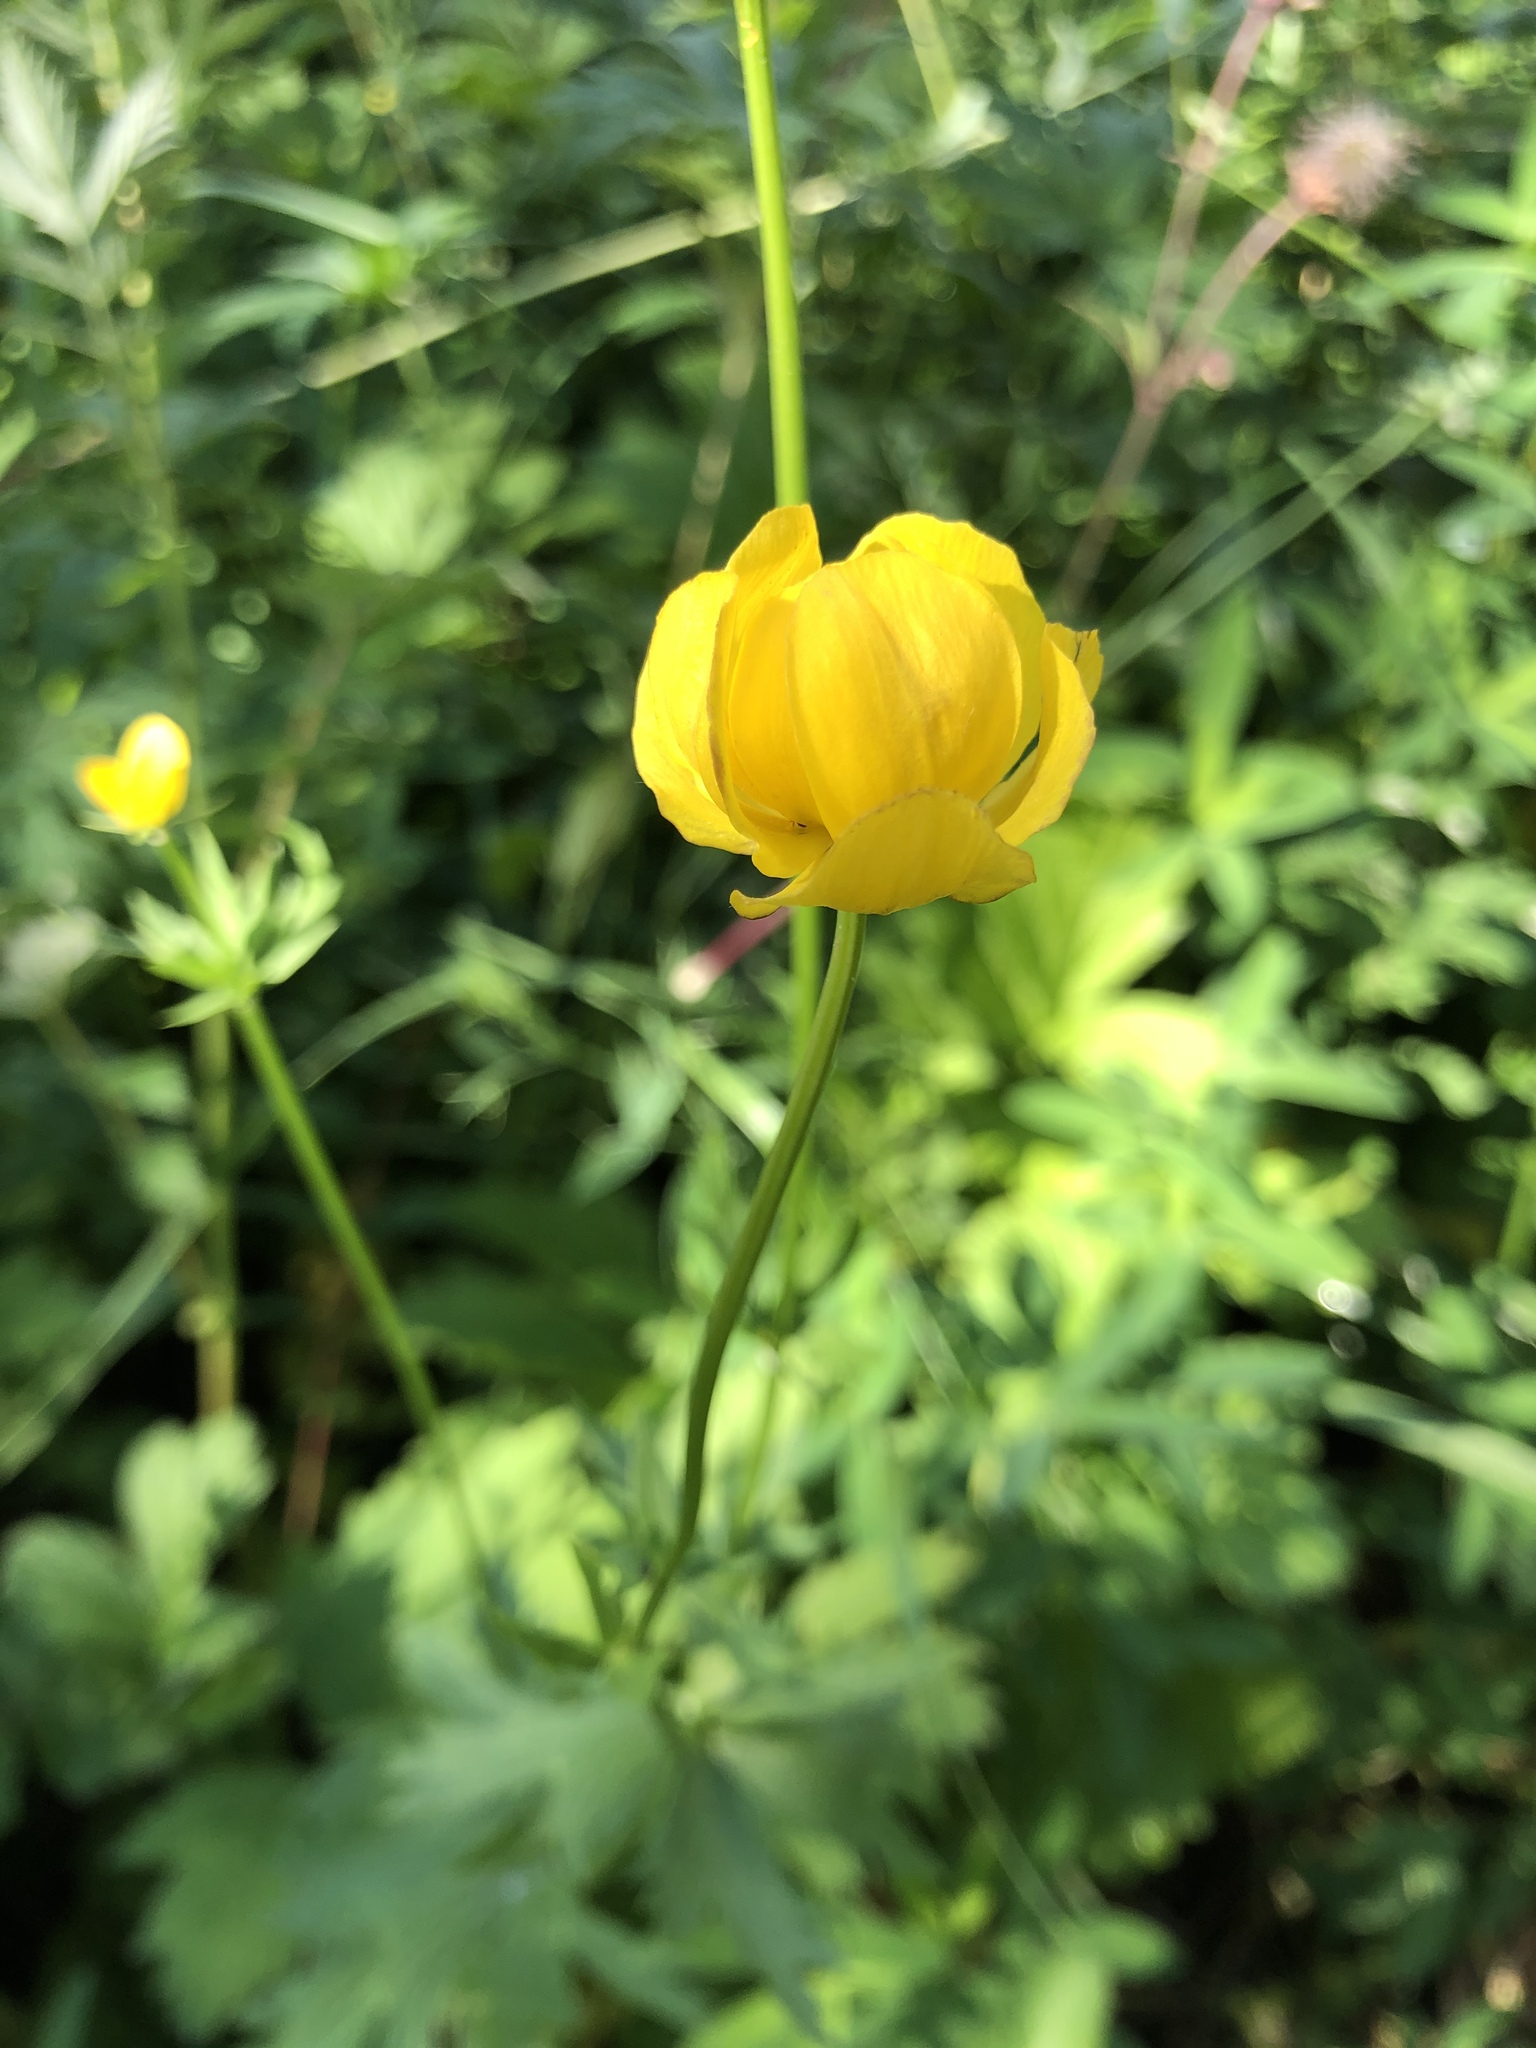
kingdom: Plantae
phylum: Tracheophyta
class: Magnoliopsida
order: Ranunculales
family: Ranunculaceae
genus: Trollius
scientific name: Trollius europaeus
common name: European globeflower
